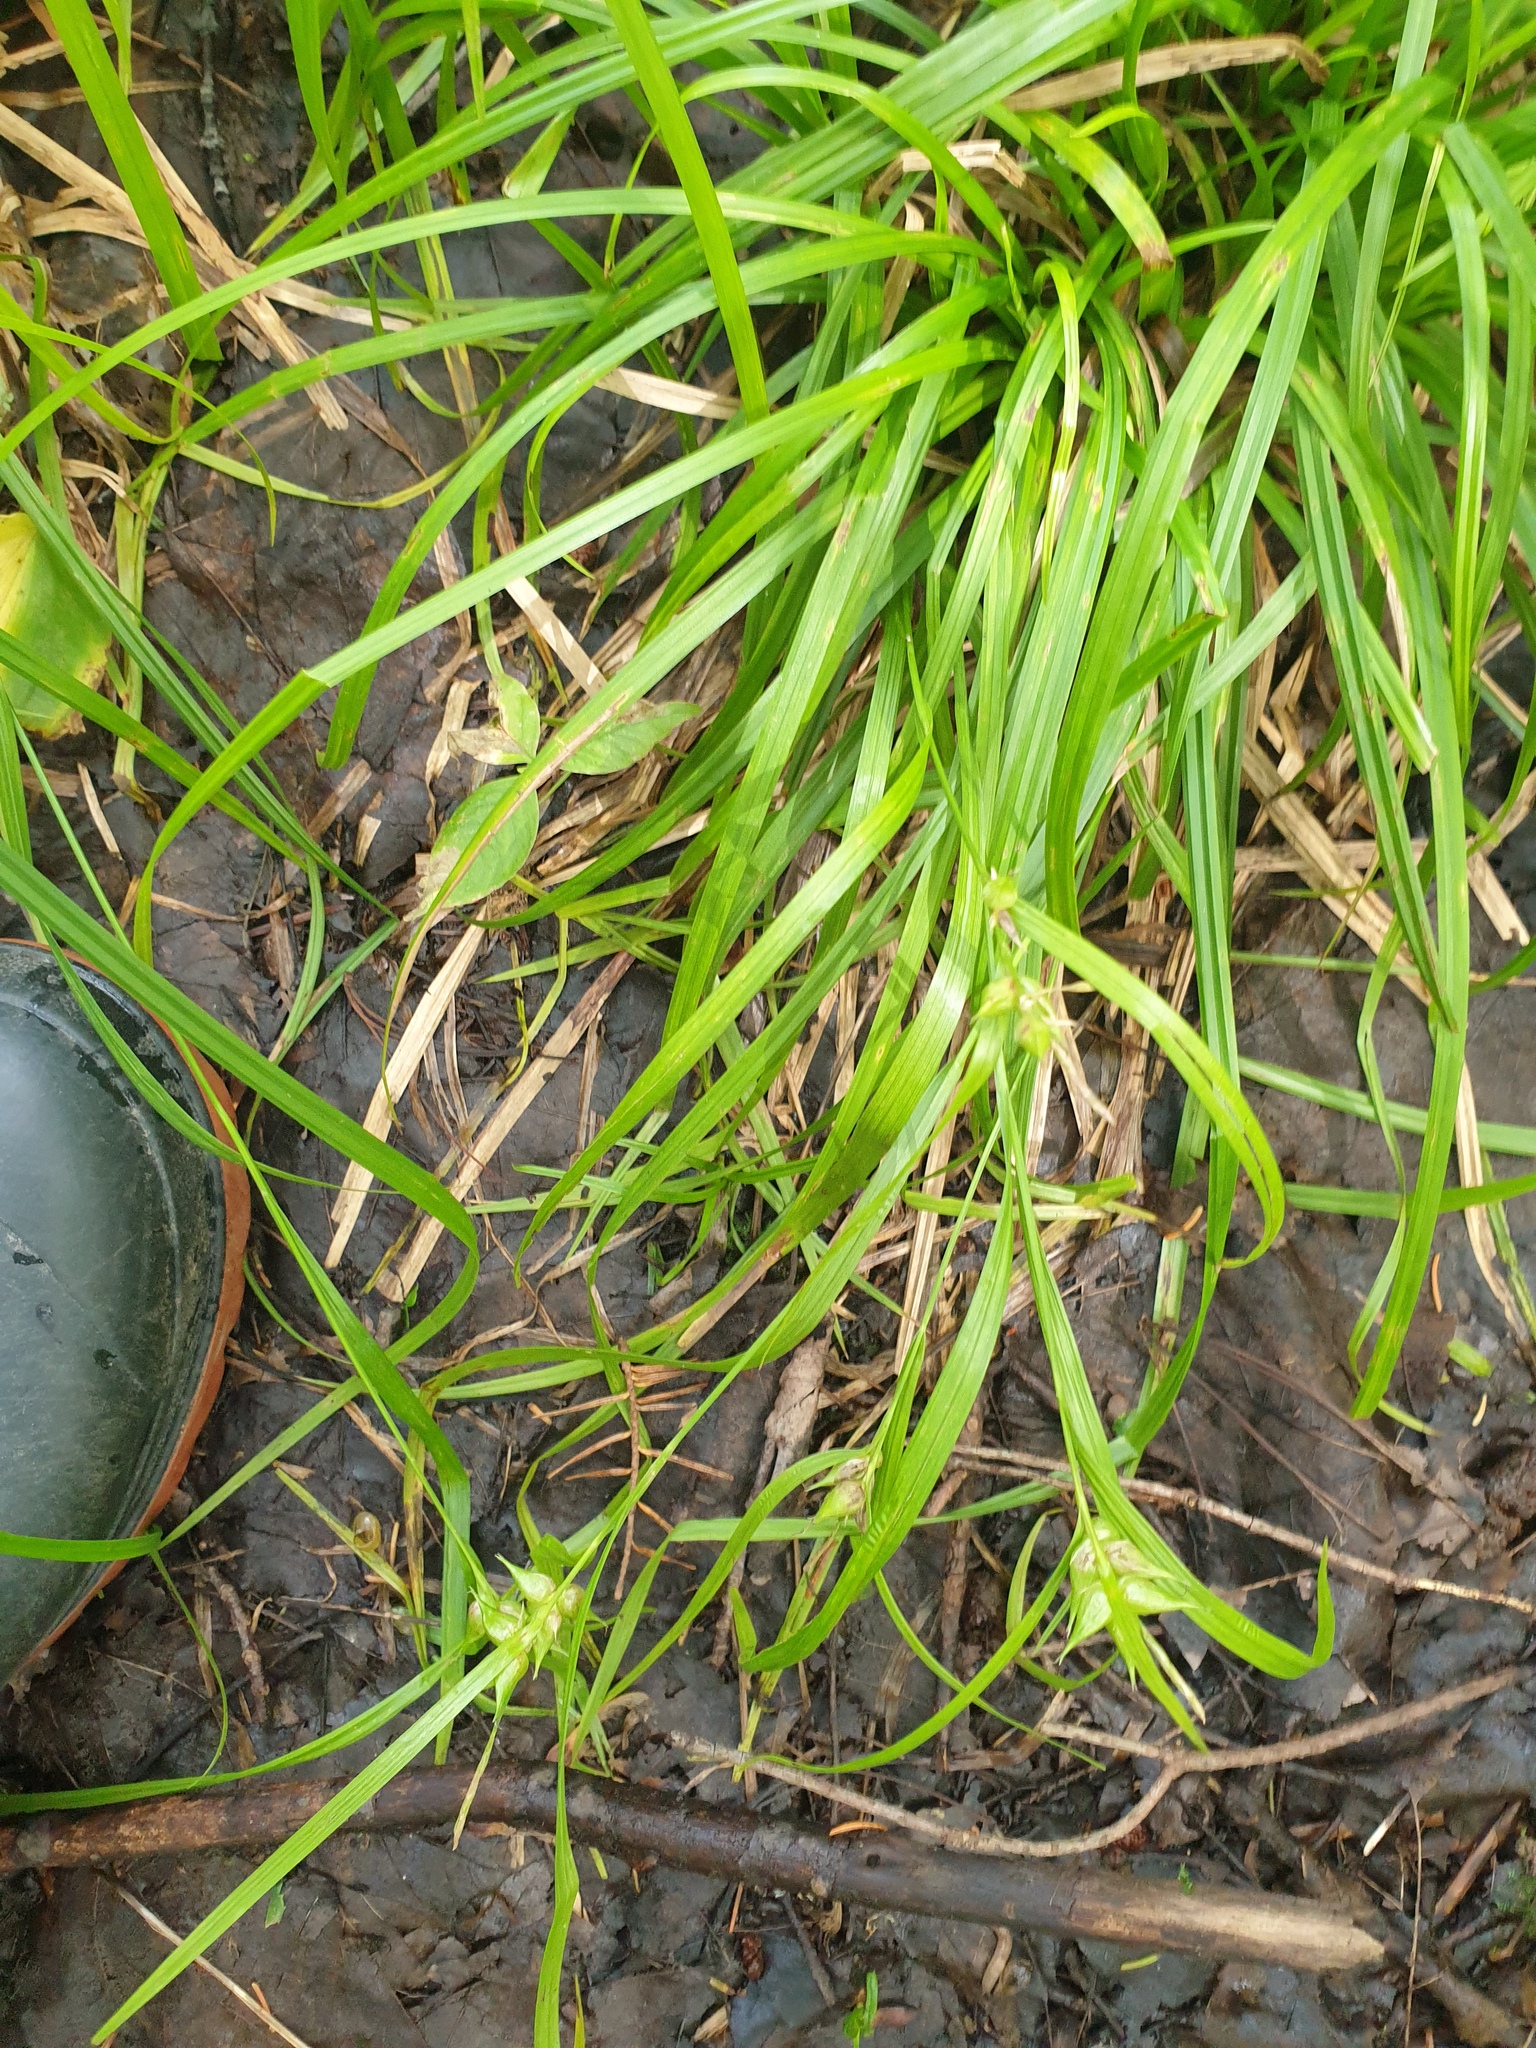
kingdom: Plantae
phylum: Tracheophyta
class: Liliopsida
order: Poales
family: Cyperaceae
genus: Carex
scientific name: Carex intumescens
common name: Greater bladder sedge
